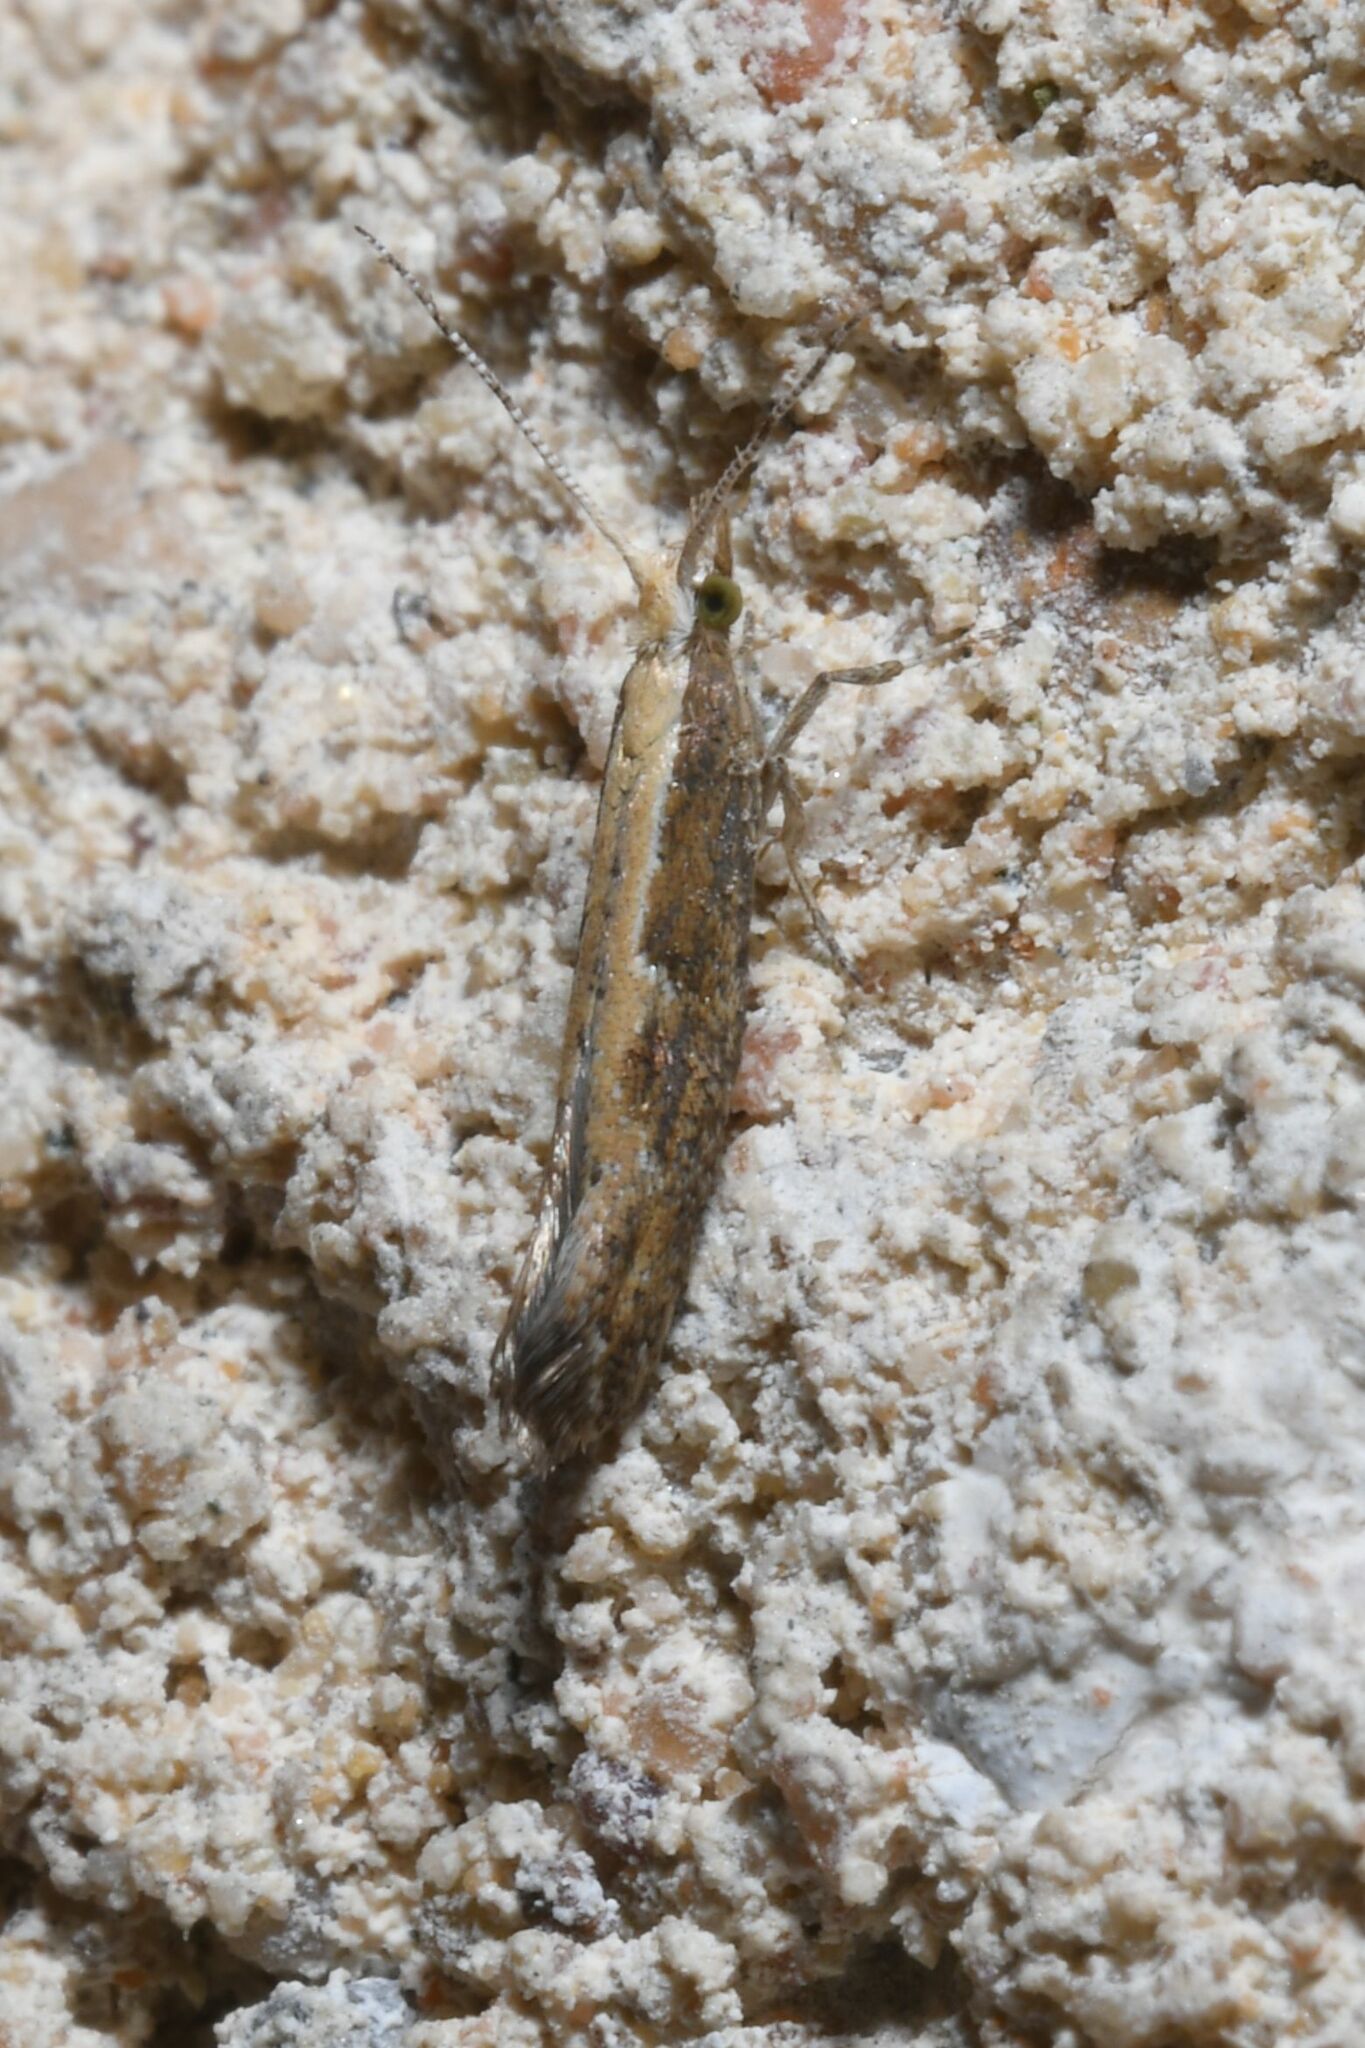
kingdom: Animalia
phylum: Arthropoda
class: Insecta
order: Lepidoptera
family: Plutellidae
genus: Plutella
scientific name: Plutella xylostella
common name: Diamond-back moth
